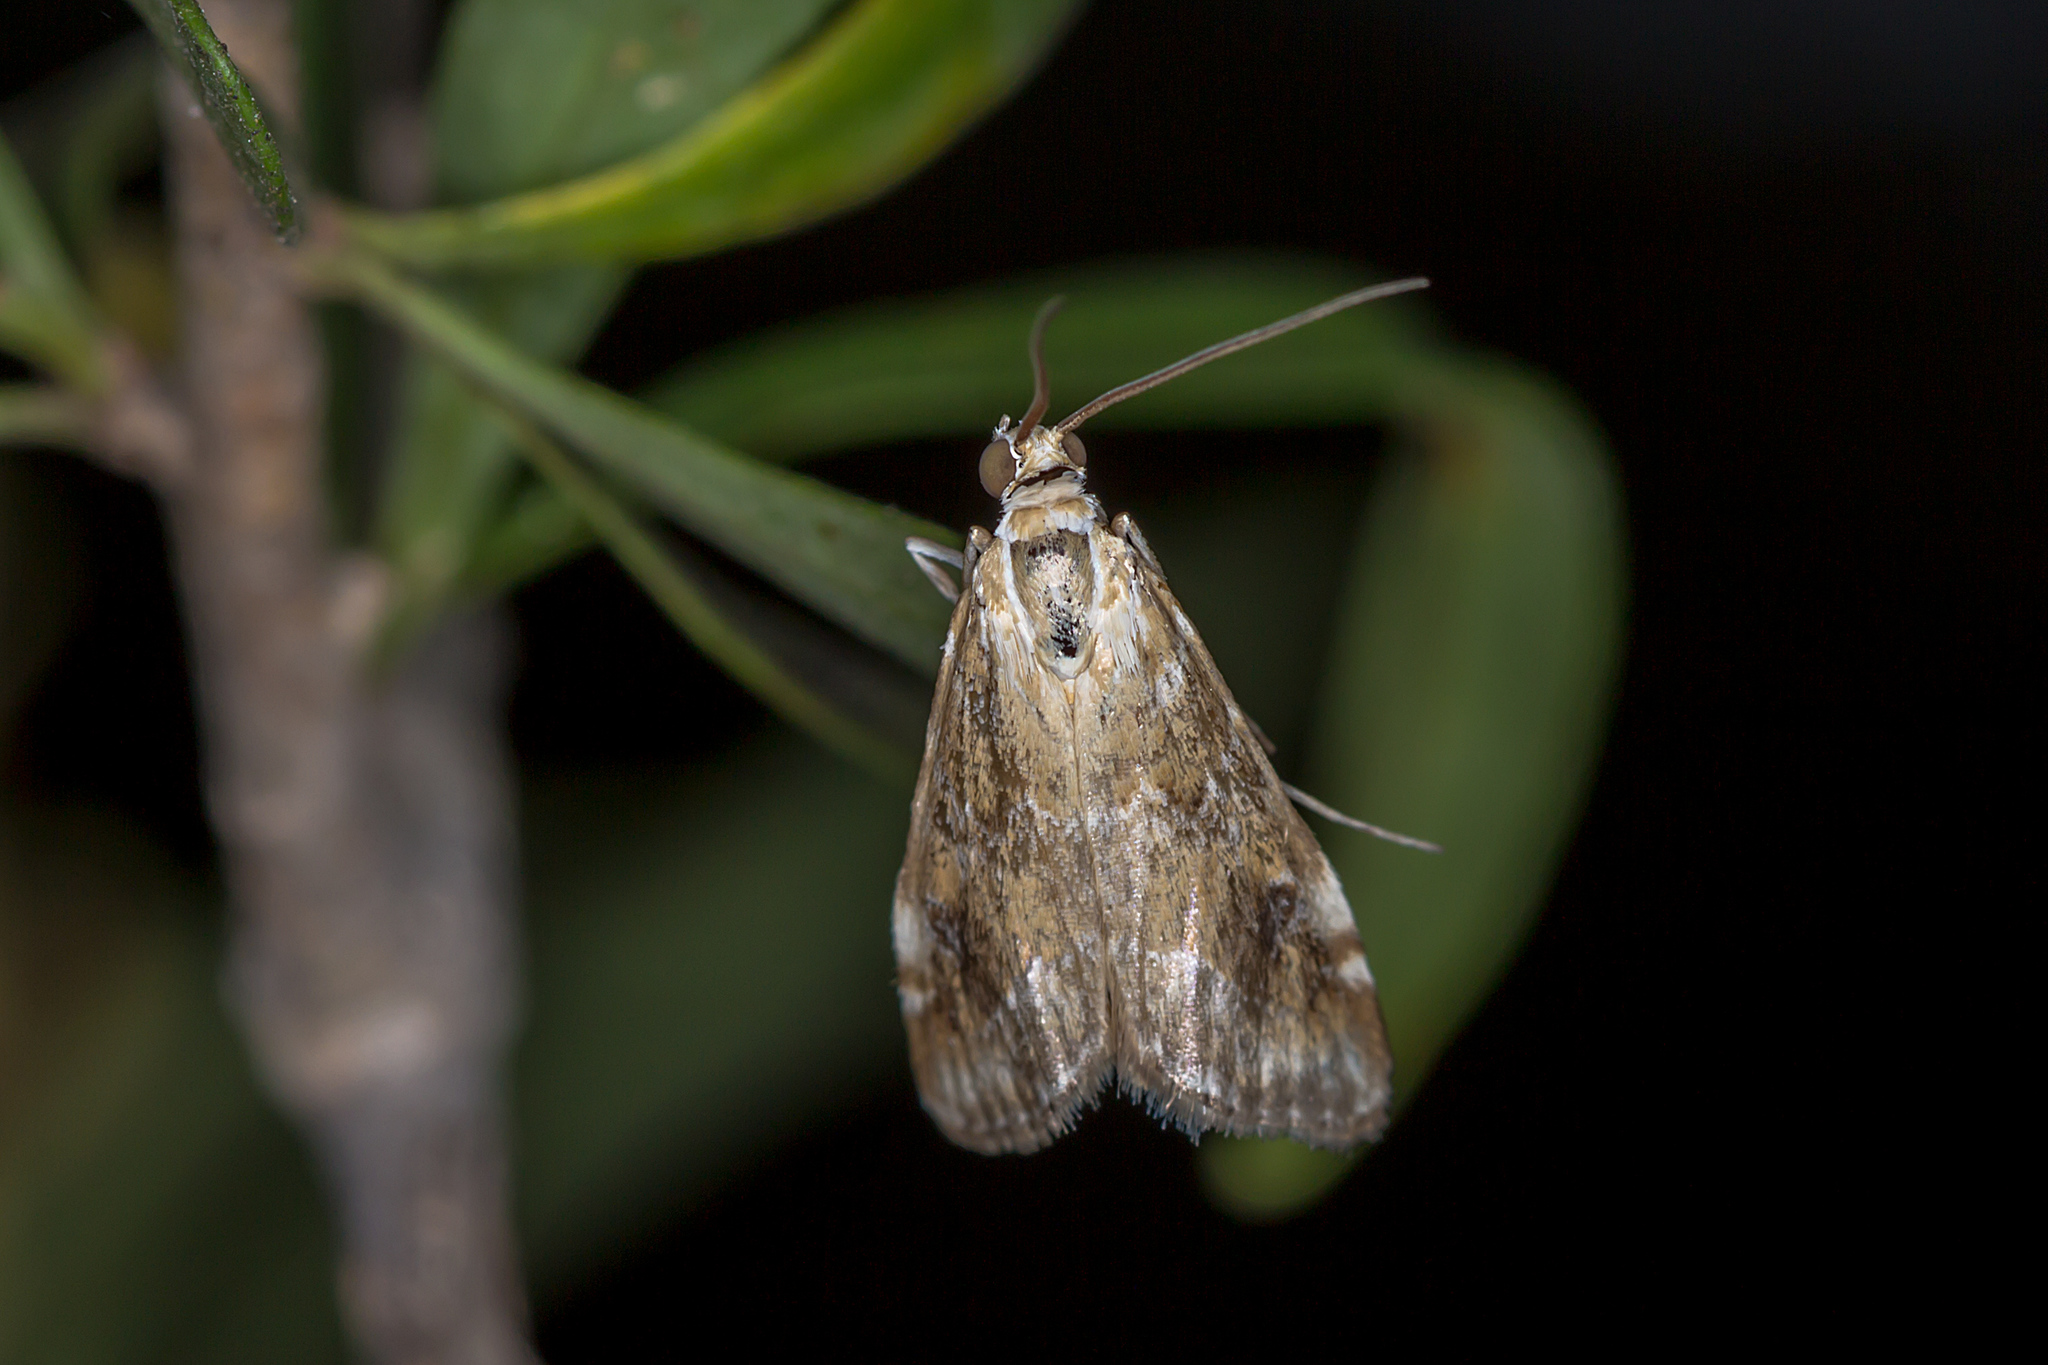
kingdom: Animalia
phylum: Arthropoda
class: Insecta
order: Lepidoptera
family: Crambidae
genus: Hellula
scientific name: Hellula hydralis
